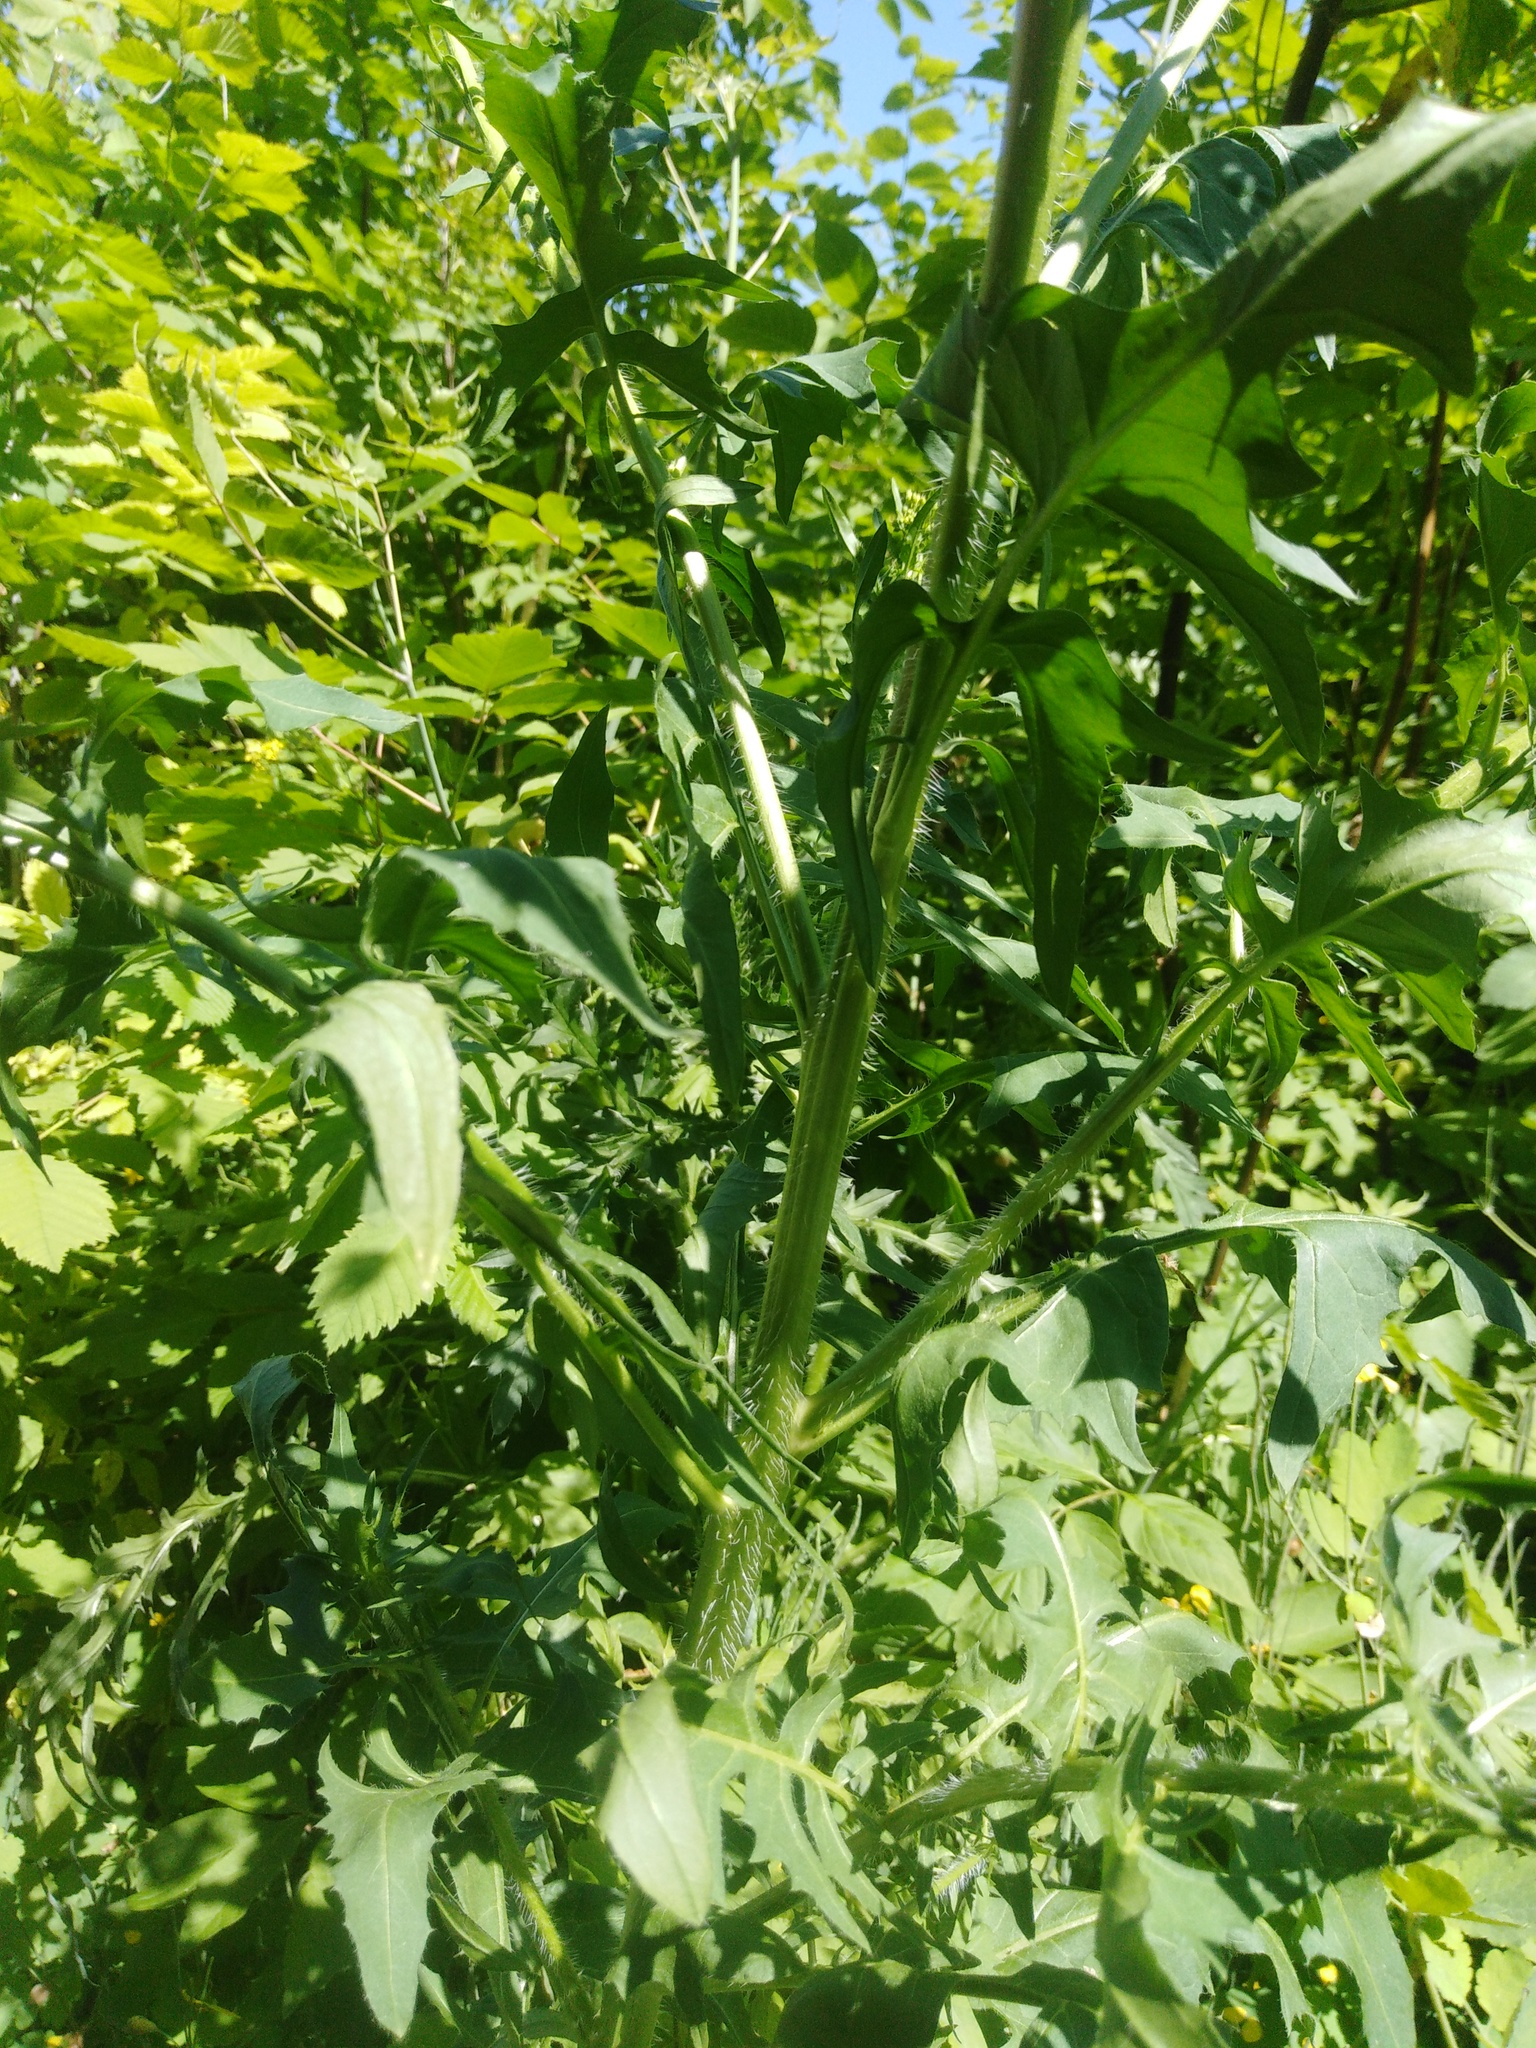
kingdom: Plantae
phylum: Tracheophyta
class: Magnoliopsida
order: Brassicales
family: Brassicaceae
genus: Sisymbrium
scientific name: Sisymbrium loeselii
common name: False london-rocket
